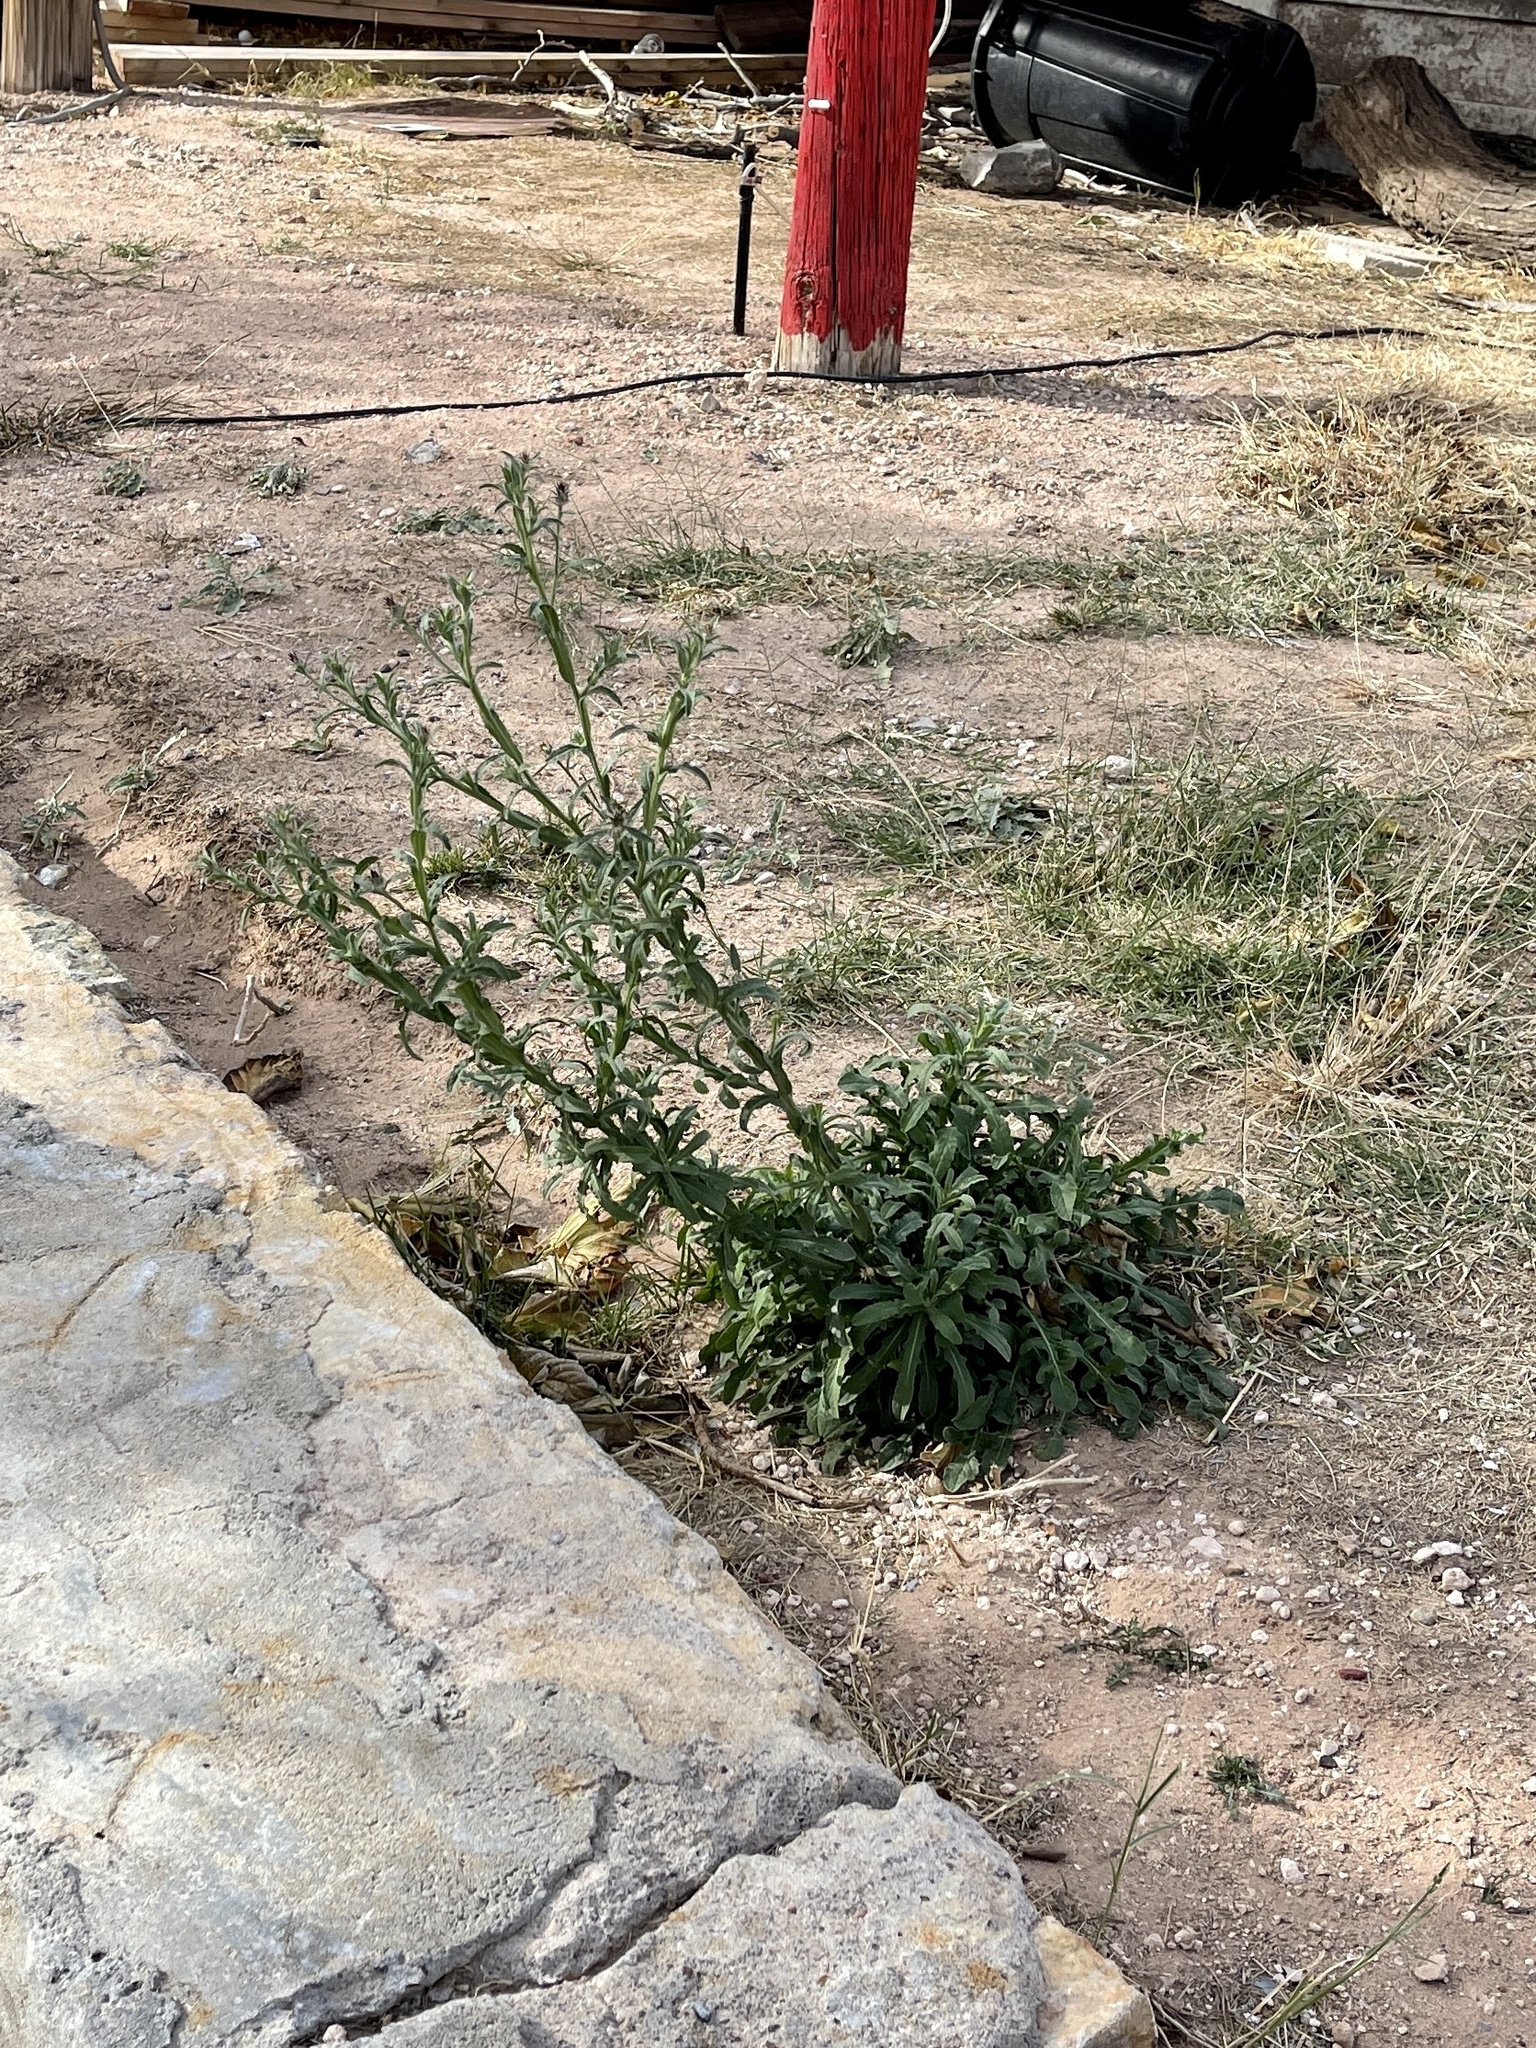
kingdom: Plantae
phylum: Tracheophyta
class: Magnoliopsida
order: Asterales
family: Asteraceae
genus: Centaurea
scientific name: Centaurea melitensis
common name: Maltese star-thistle
